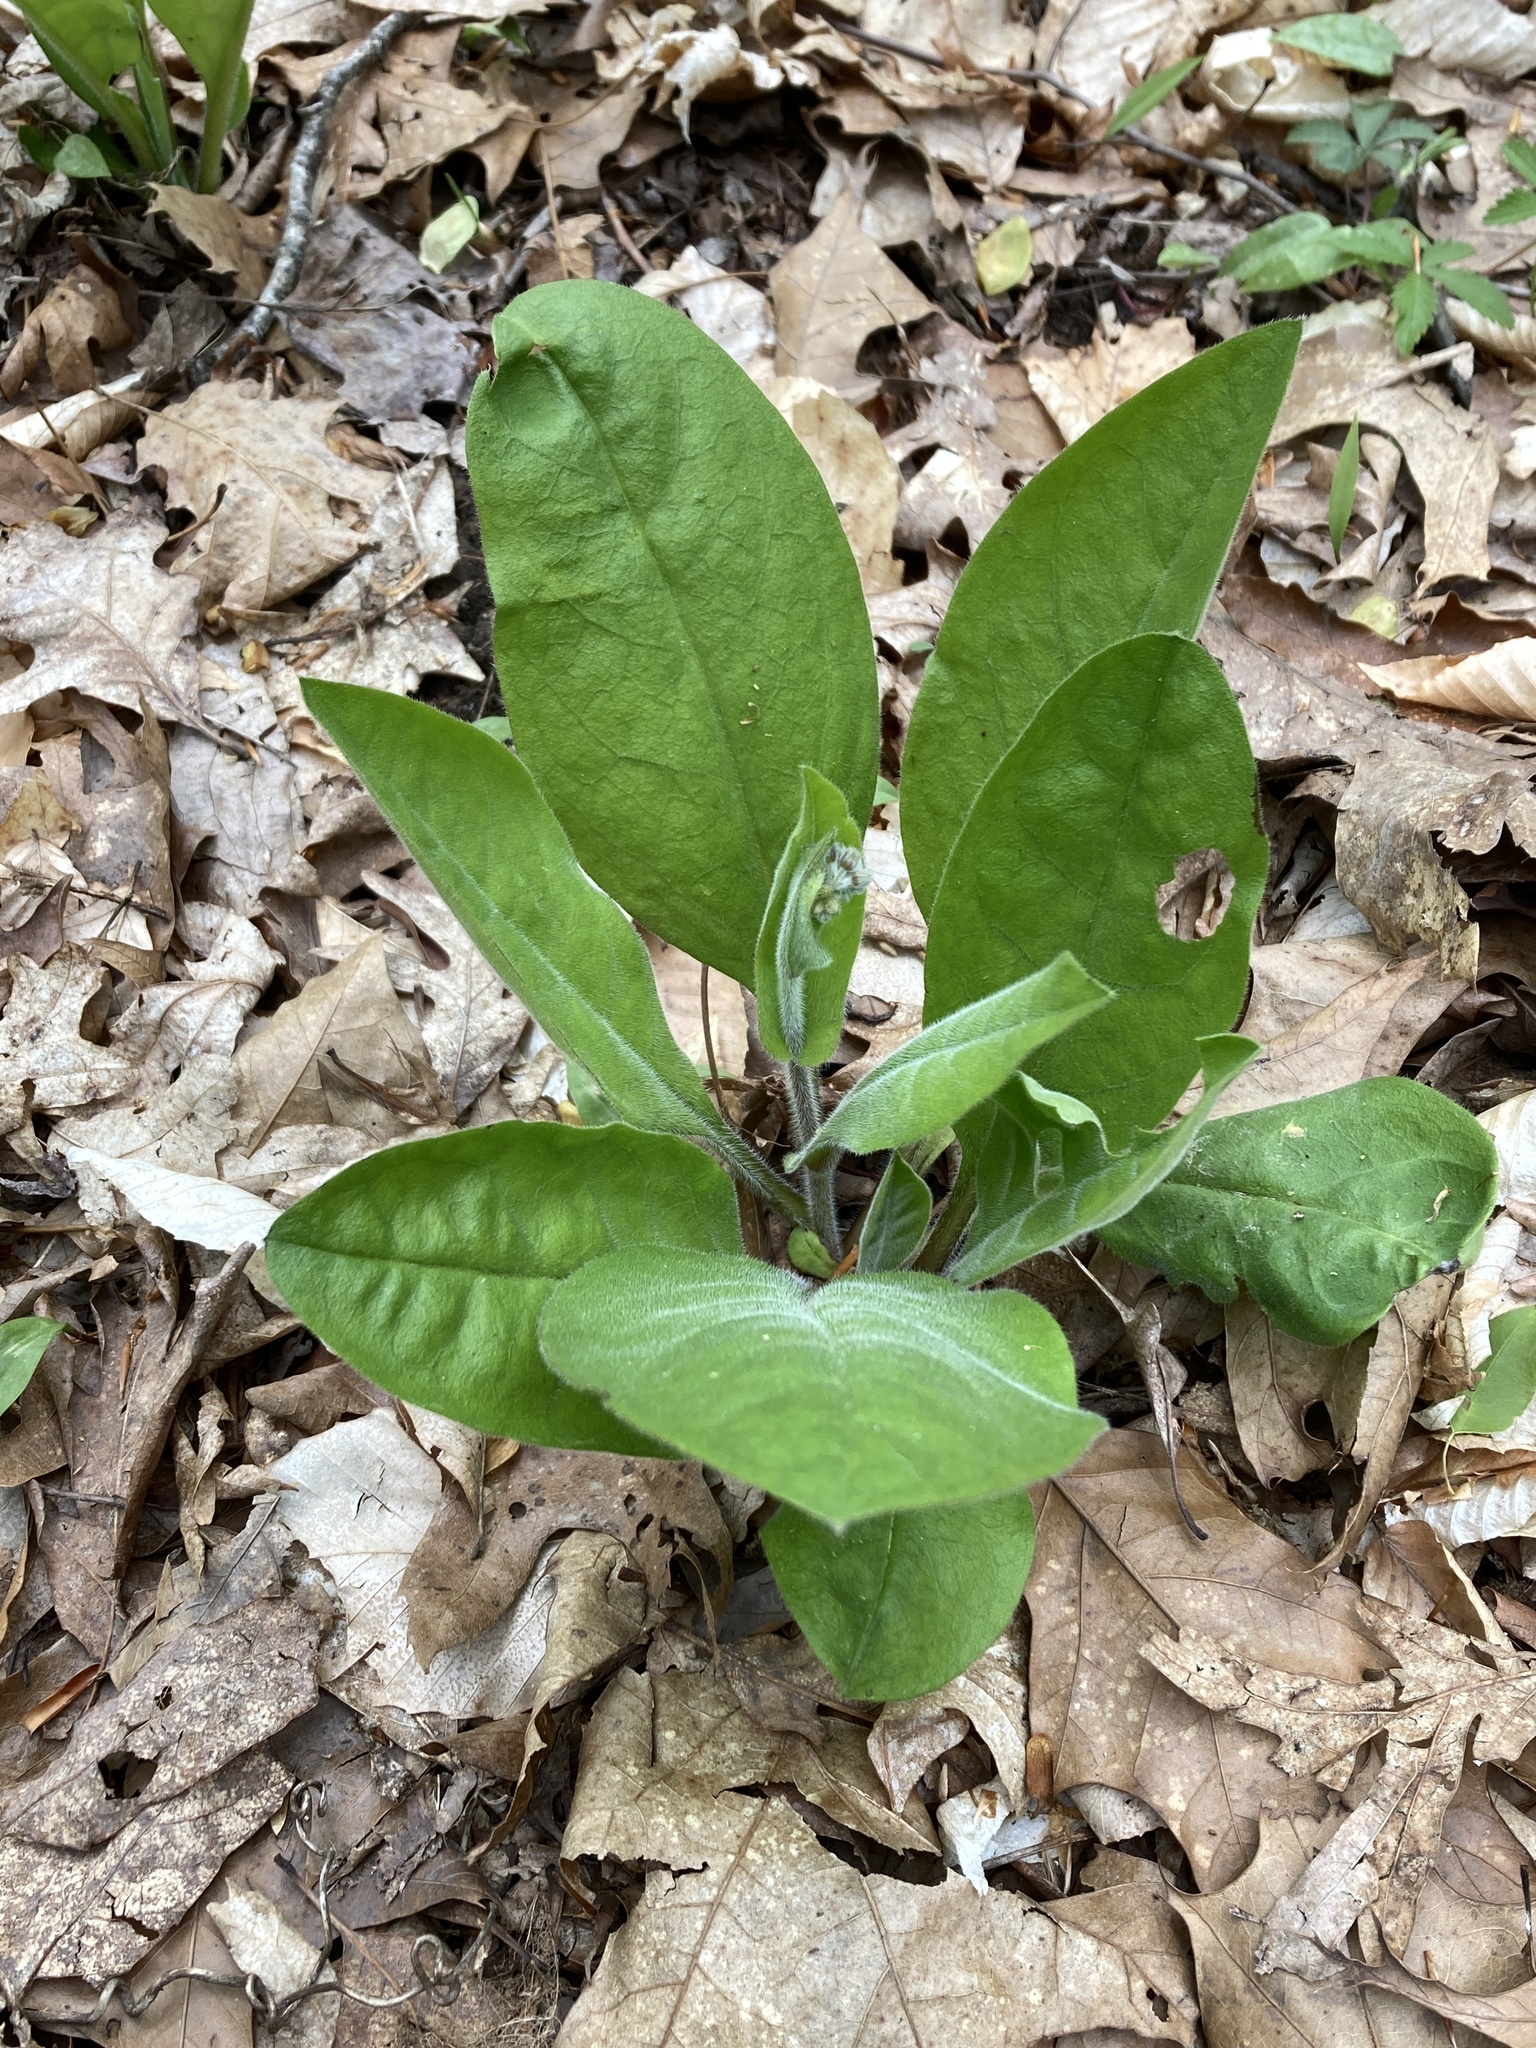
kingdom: Plantae
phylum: Tracheophyta
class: Magnoliopsida
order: Boraginales
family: Boraginaceae
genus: Andersonglossum
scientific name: Andersonglossum virginianum
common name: Wild comfrey
